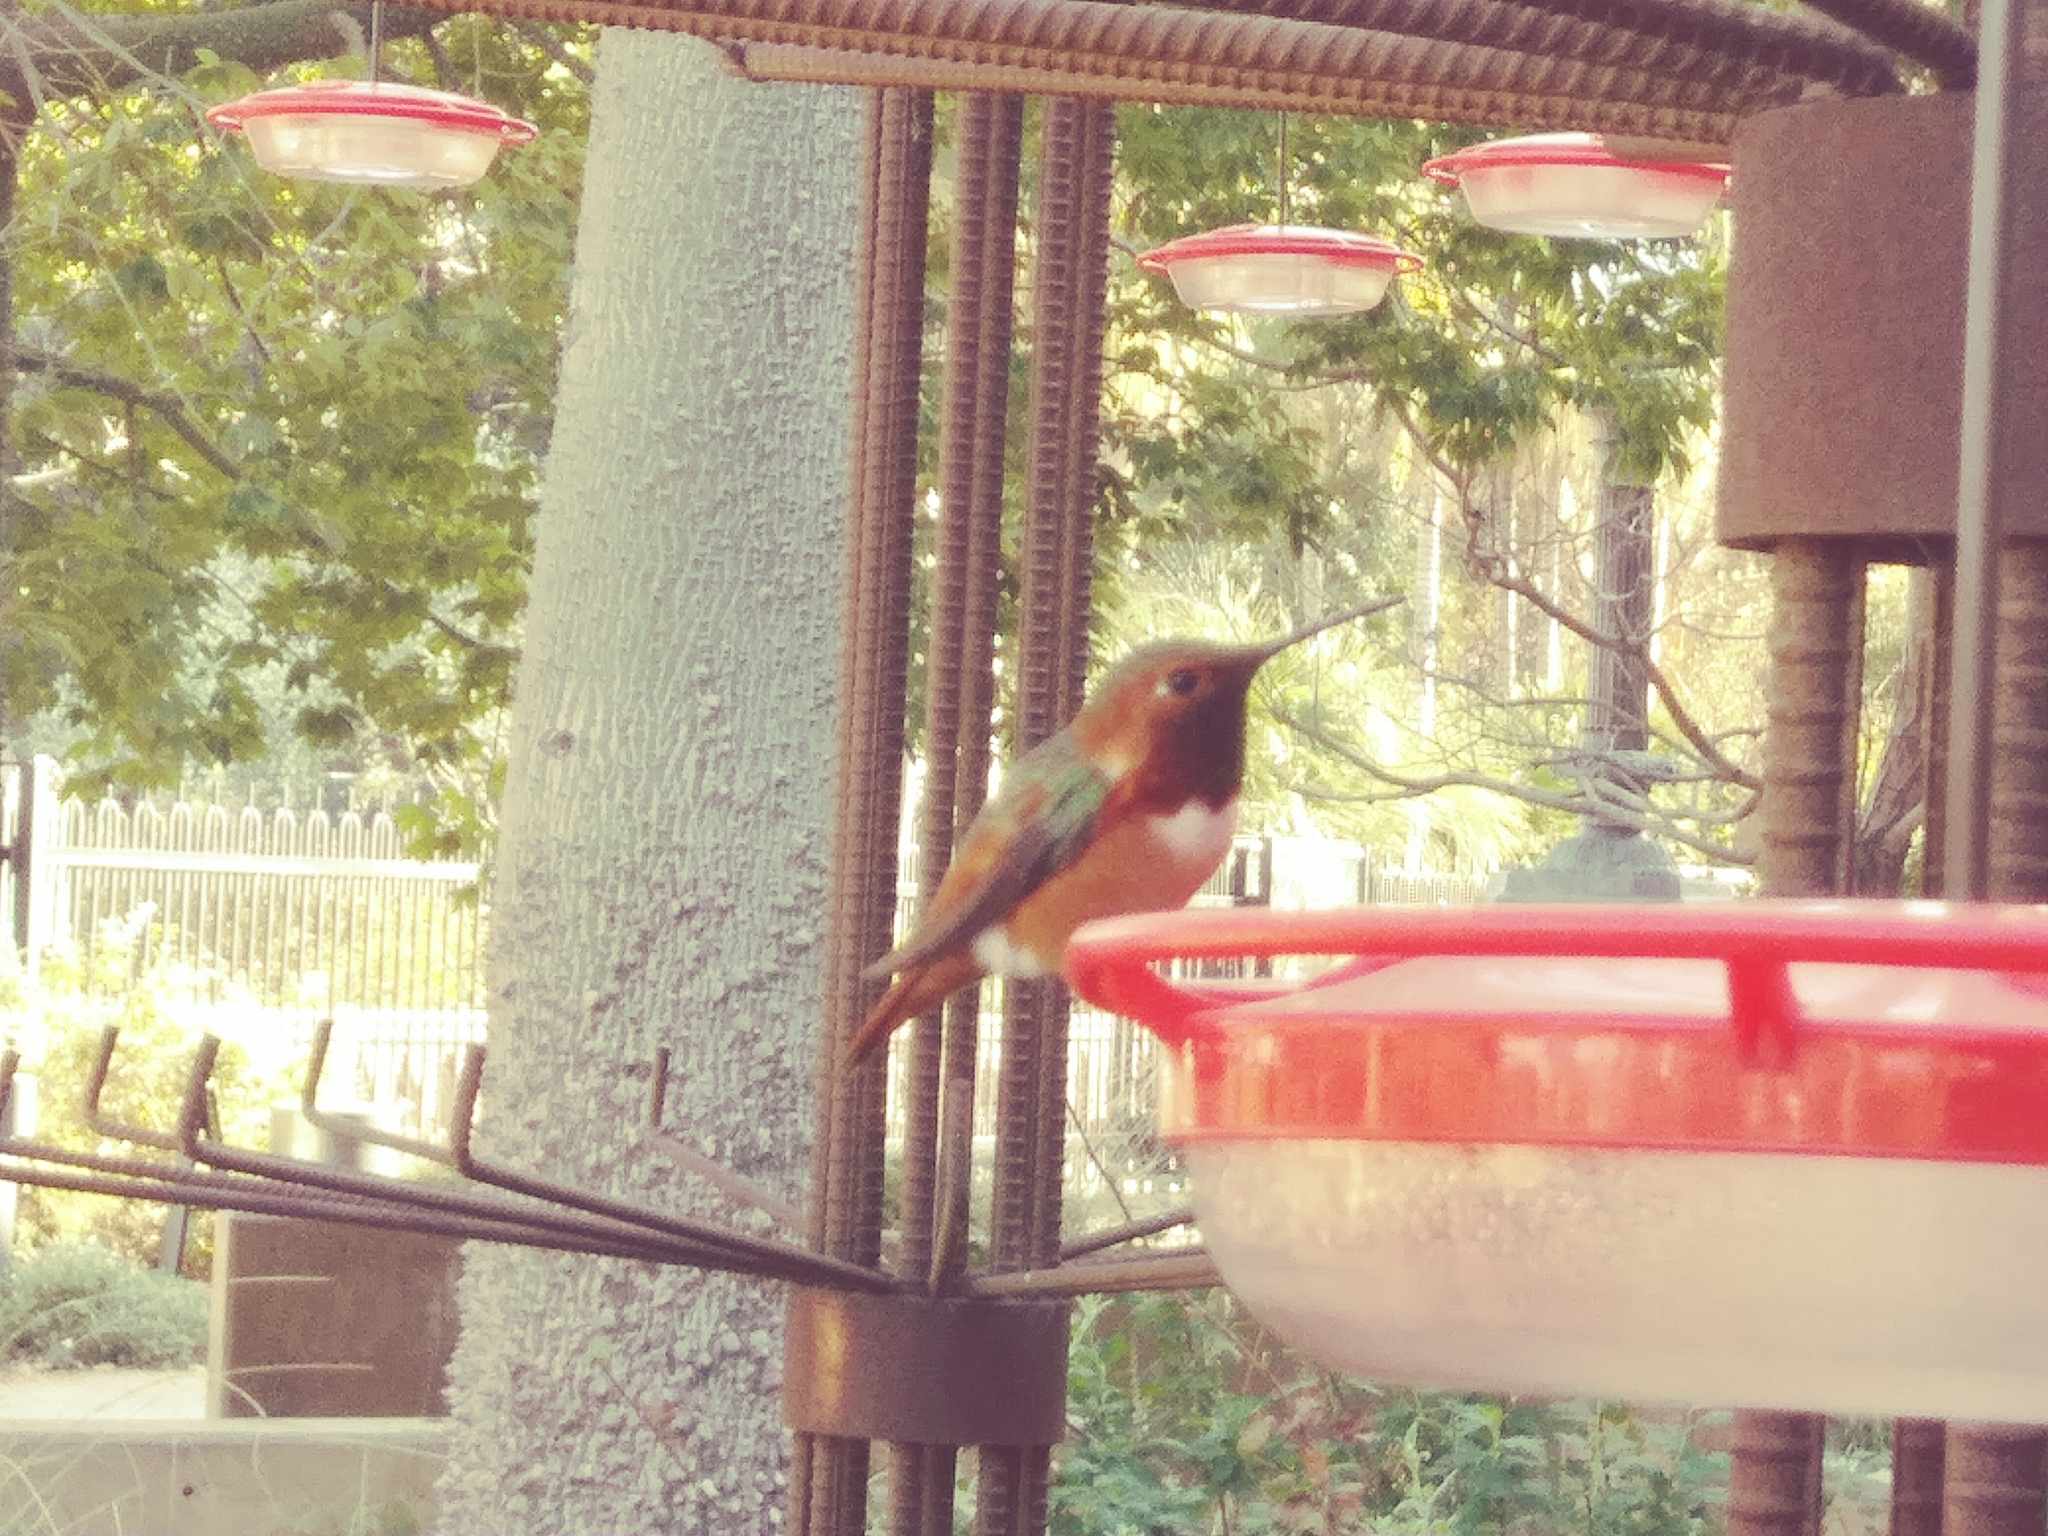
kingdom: Animalia
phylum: Chordata
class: Aves
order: Apodiformes
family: Trochilidae
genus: Selasphorus
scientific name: Selasphorus sasin
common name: Allen's hummingbird
